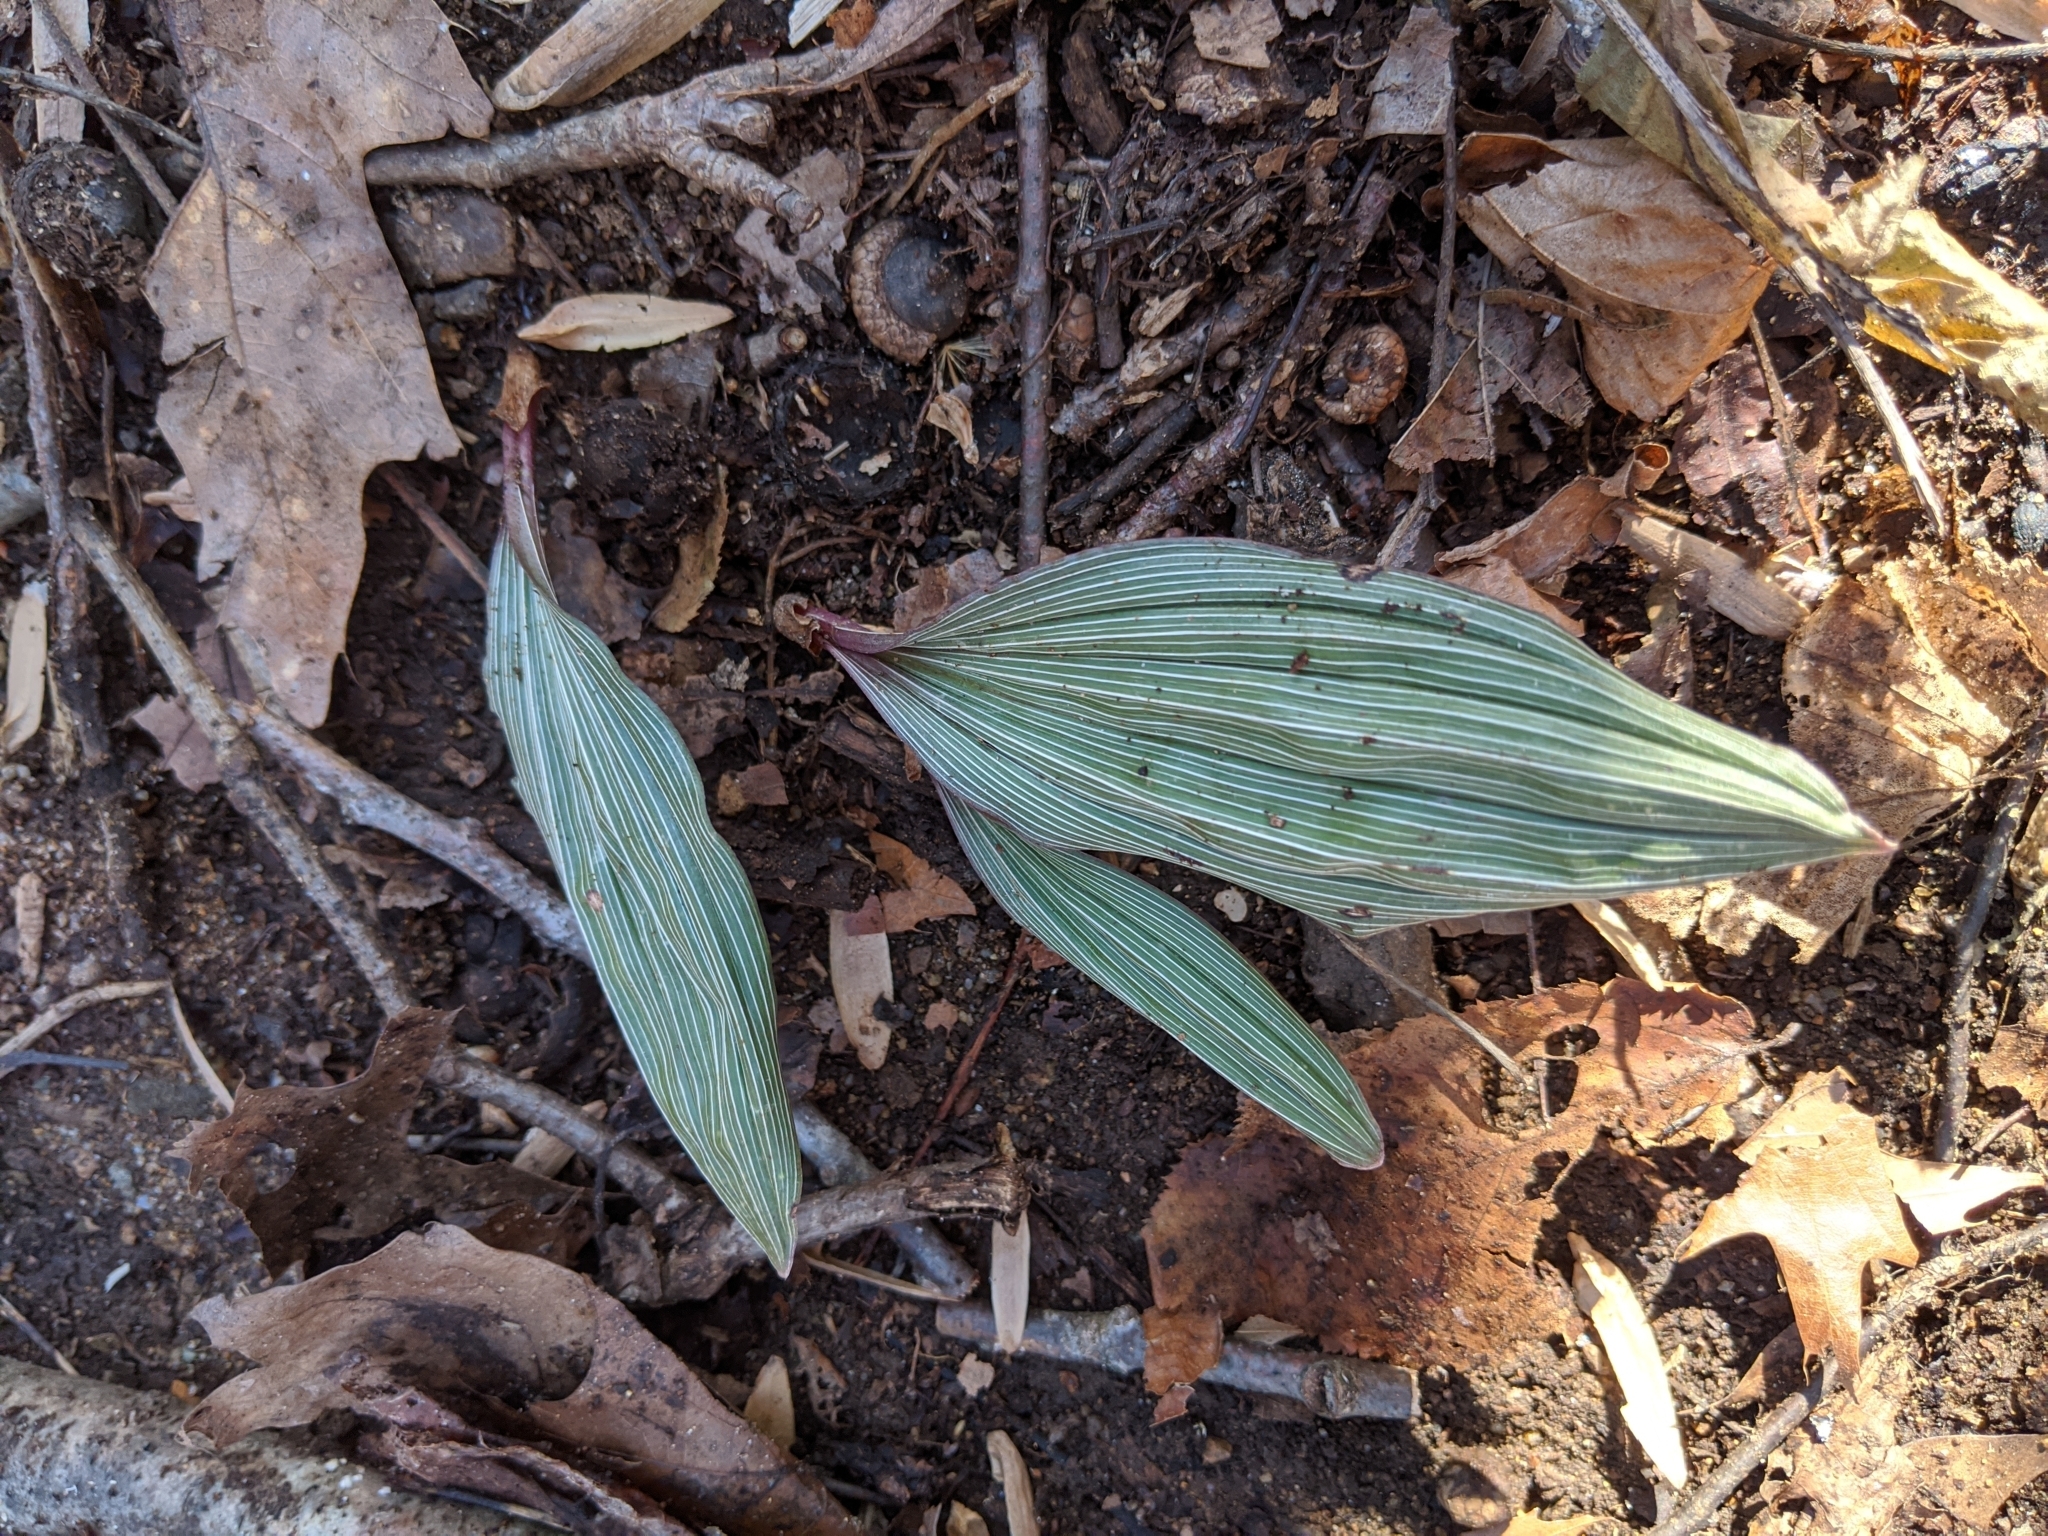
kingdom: Plantae
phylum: Tracheophyta
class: Liliopsida
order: Asparagales
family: Orchidaceae
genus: Aplectrum
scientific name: Aplectrum hyemale
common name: Adam-and-eve
